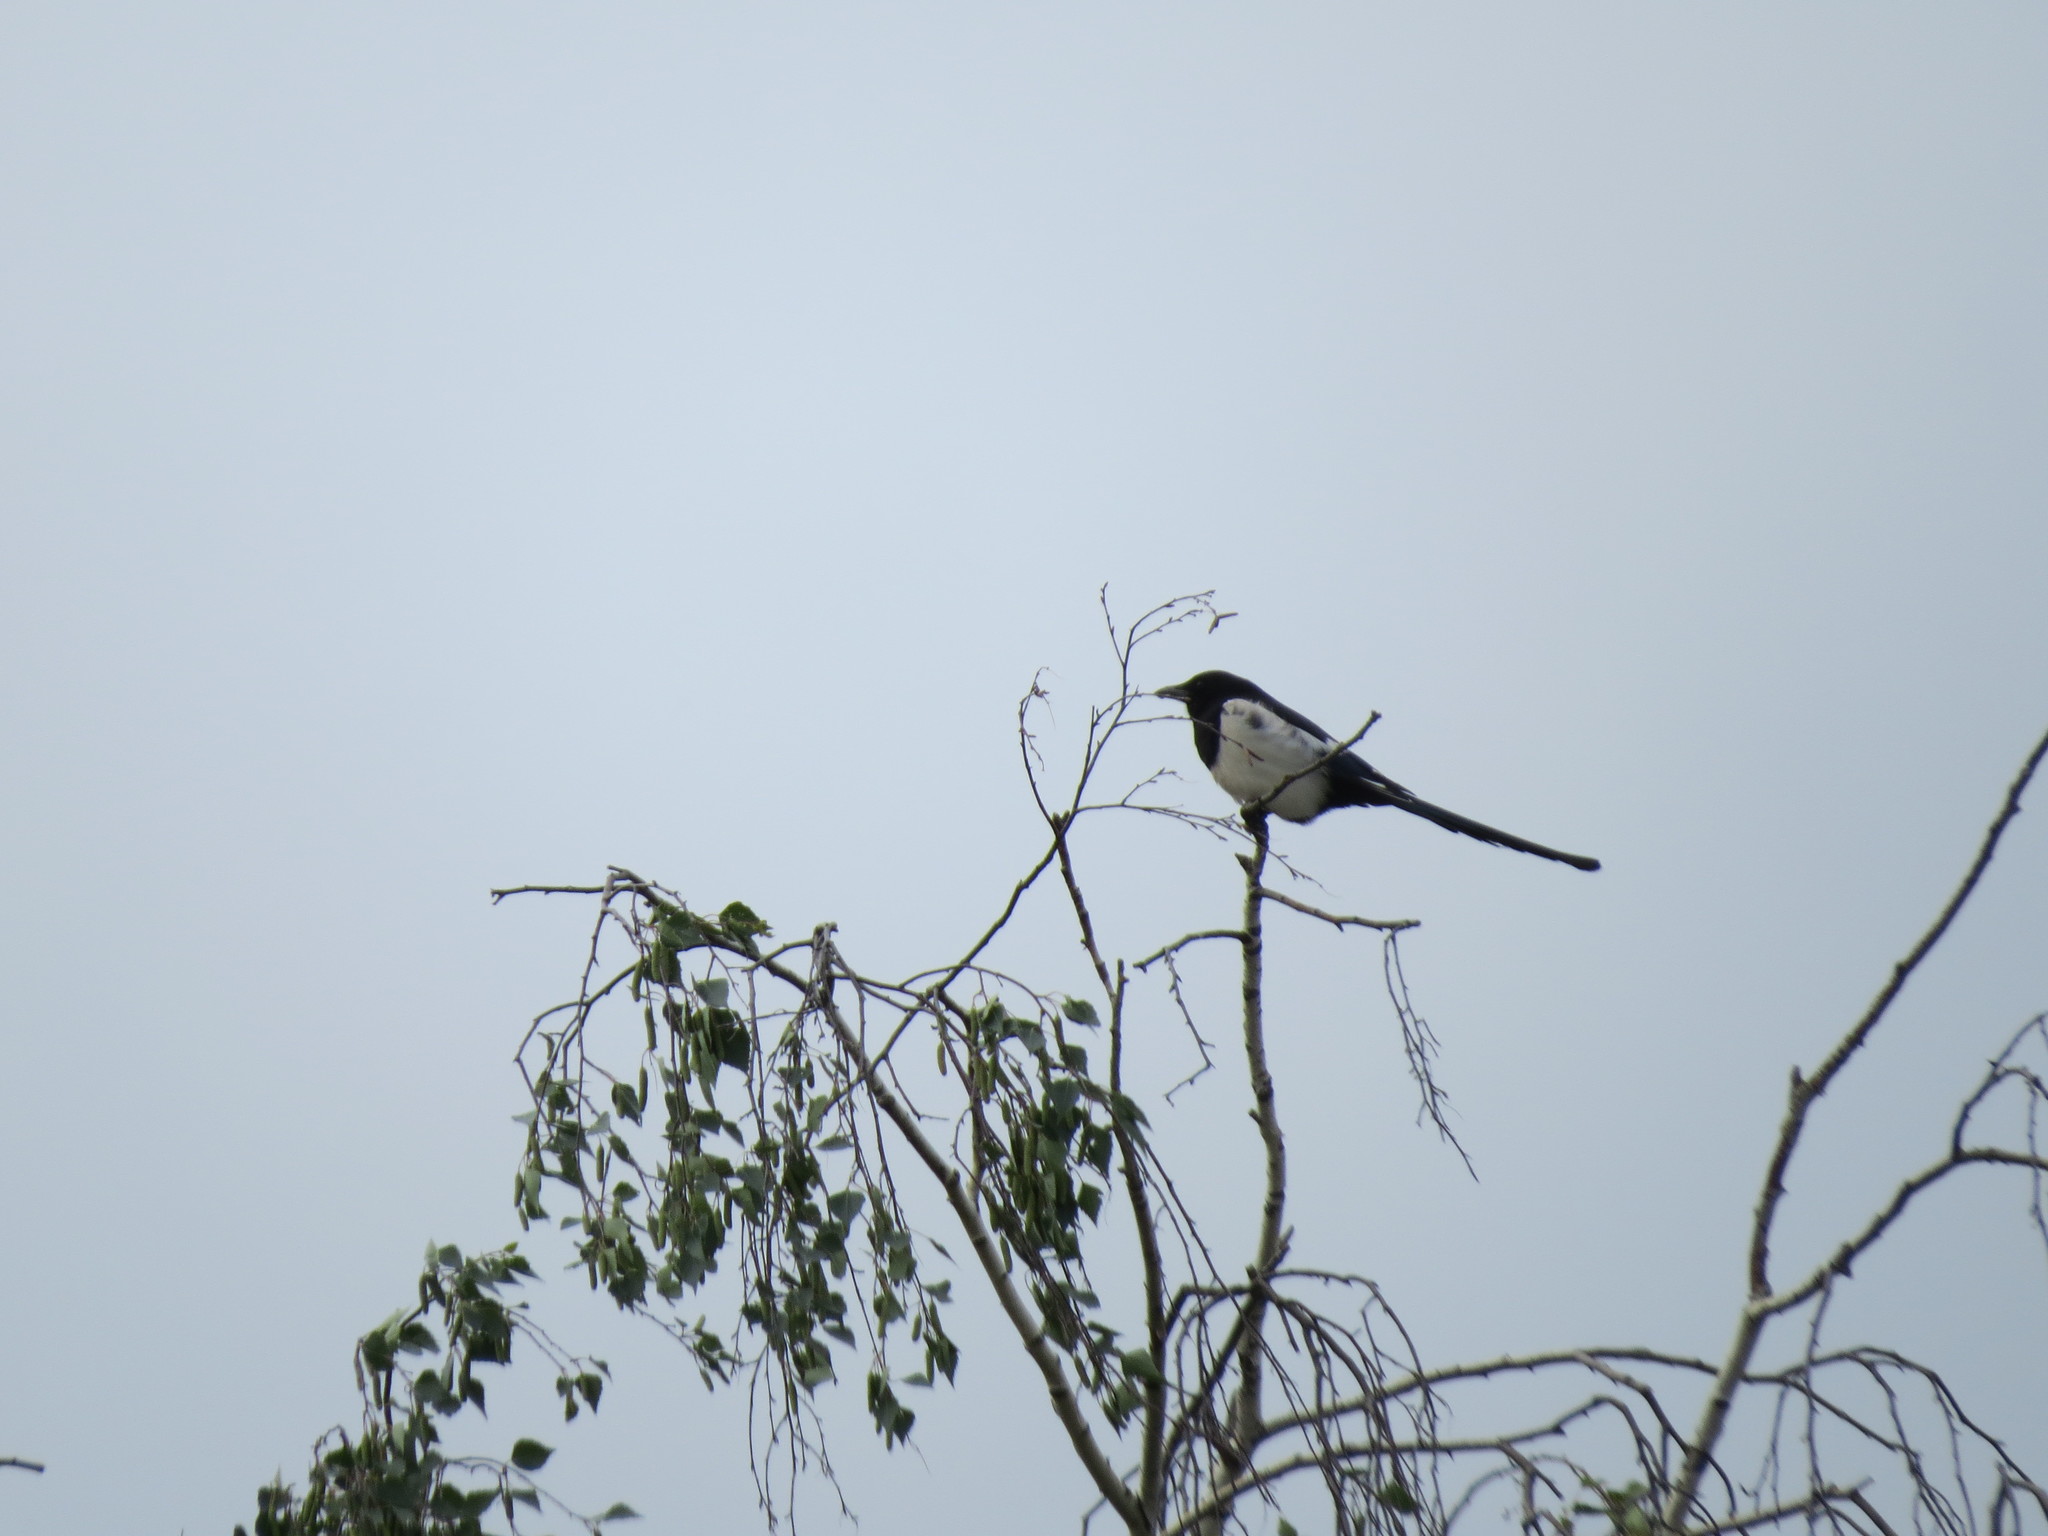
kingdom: Animalia
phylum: Chordata
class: Aves
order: Passeriformes
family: Corvidae
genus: Pica
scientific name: Pica pica
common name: Eurasian magpie
